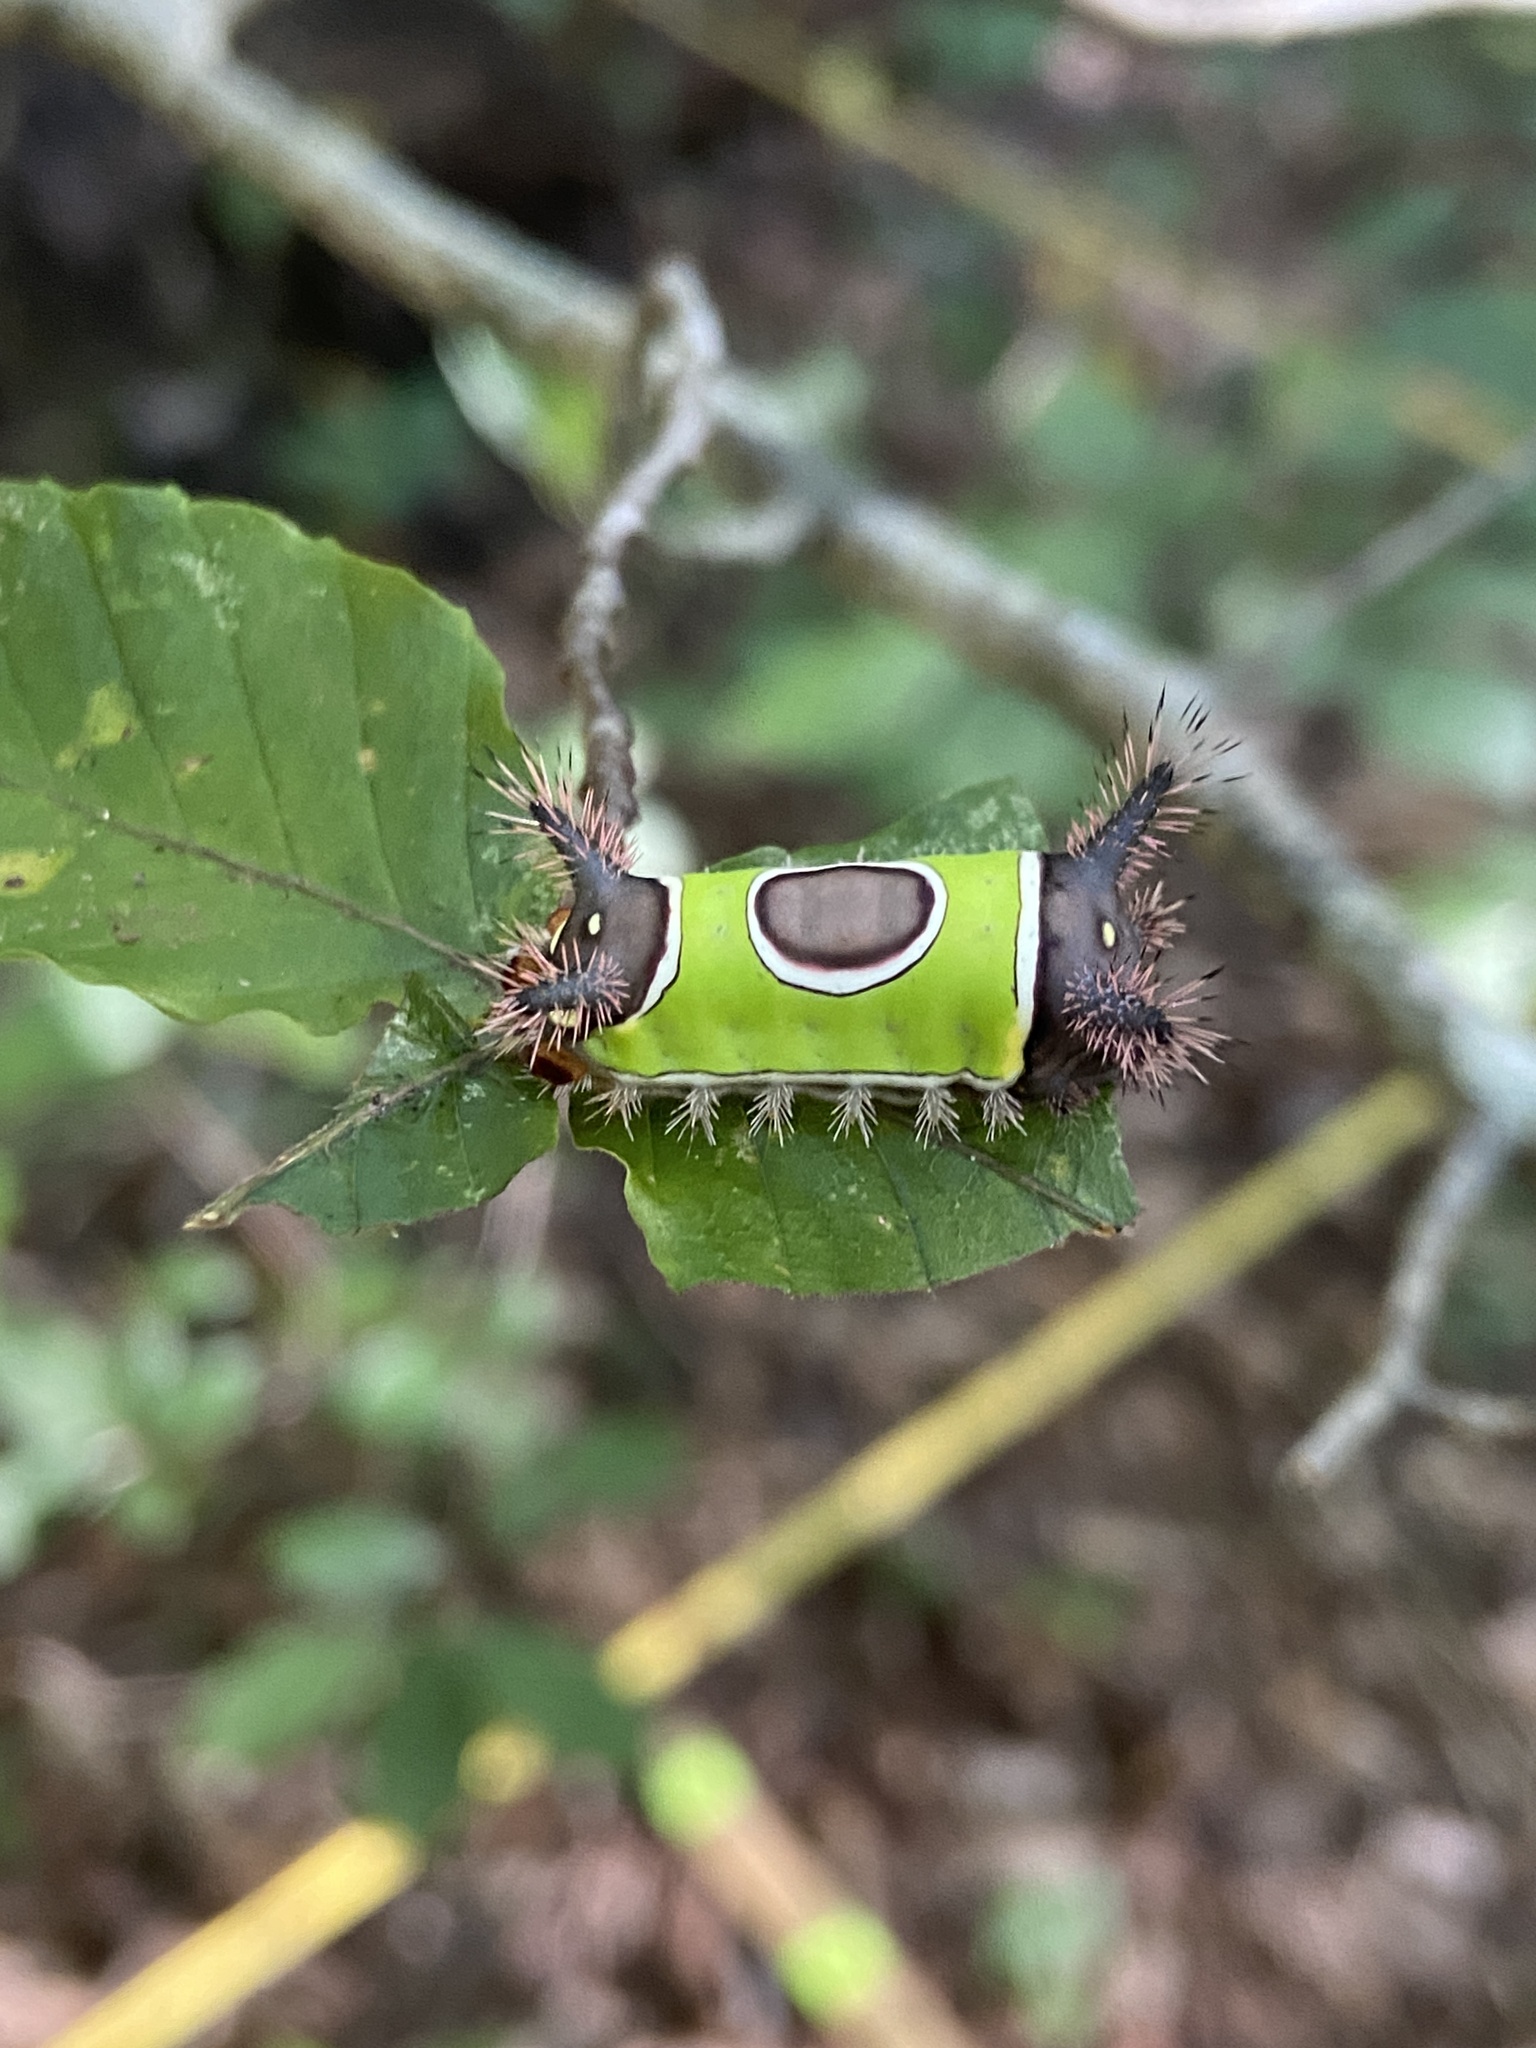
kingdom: Animalia
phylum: Arthropoda
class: Insecta
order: Lepidoptera
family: Limacodidae
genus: Acharia
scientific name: Acharia stimulea
